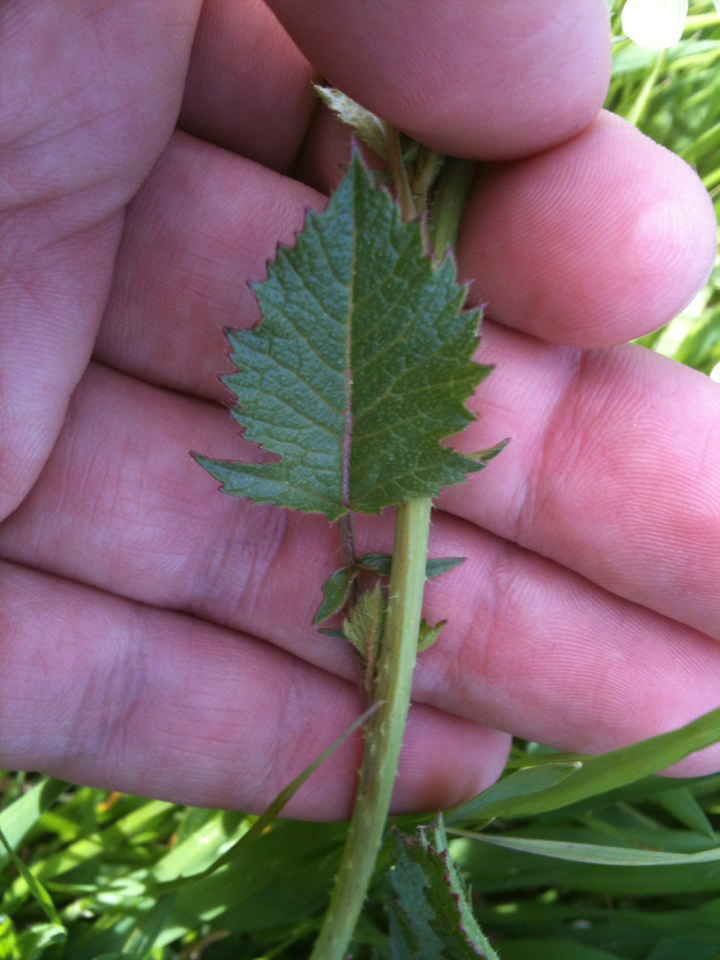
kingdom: Plantae
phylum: Tracheophyta
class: Magnoliopsida
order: Brassicales
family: Brassicaceae
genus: Raphanus
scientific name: Raphanus raphanistrum
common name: Wild radish
